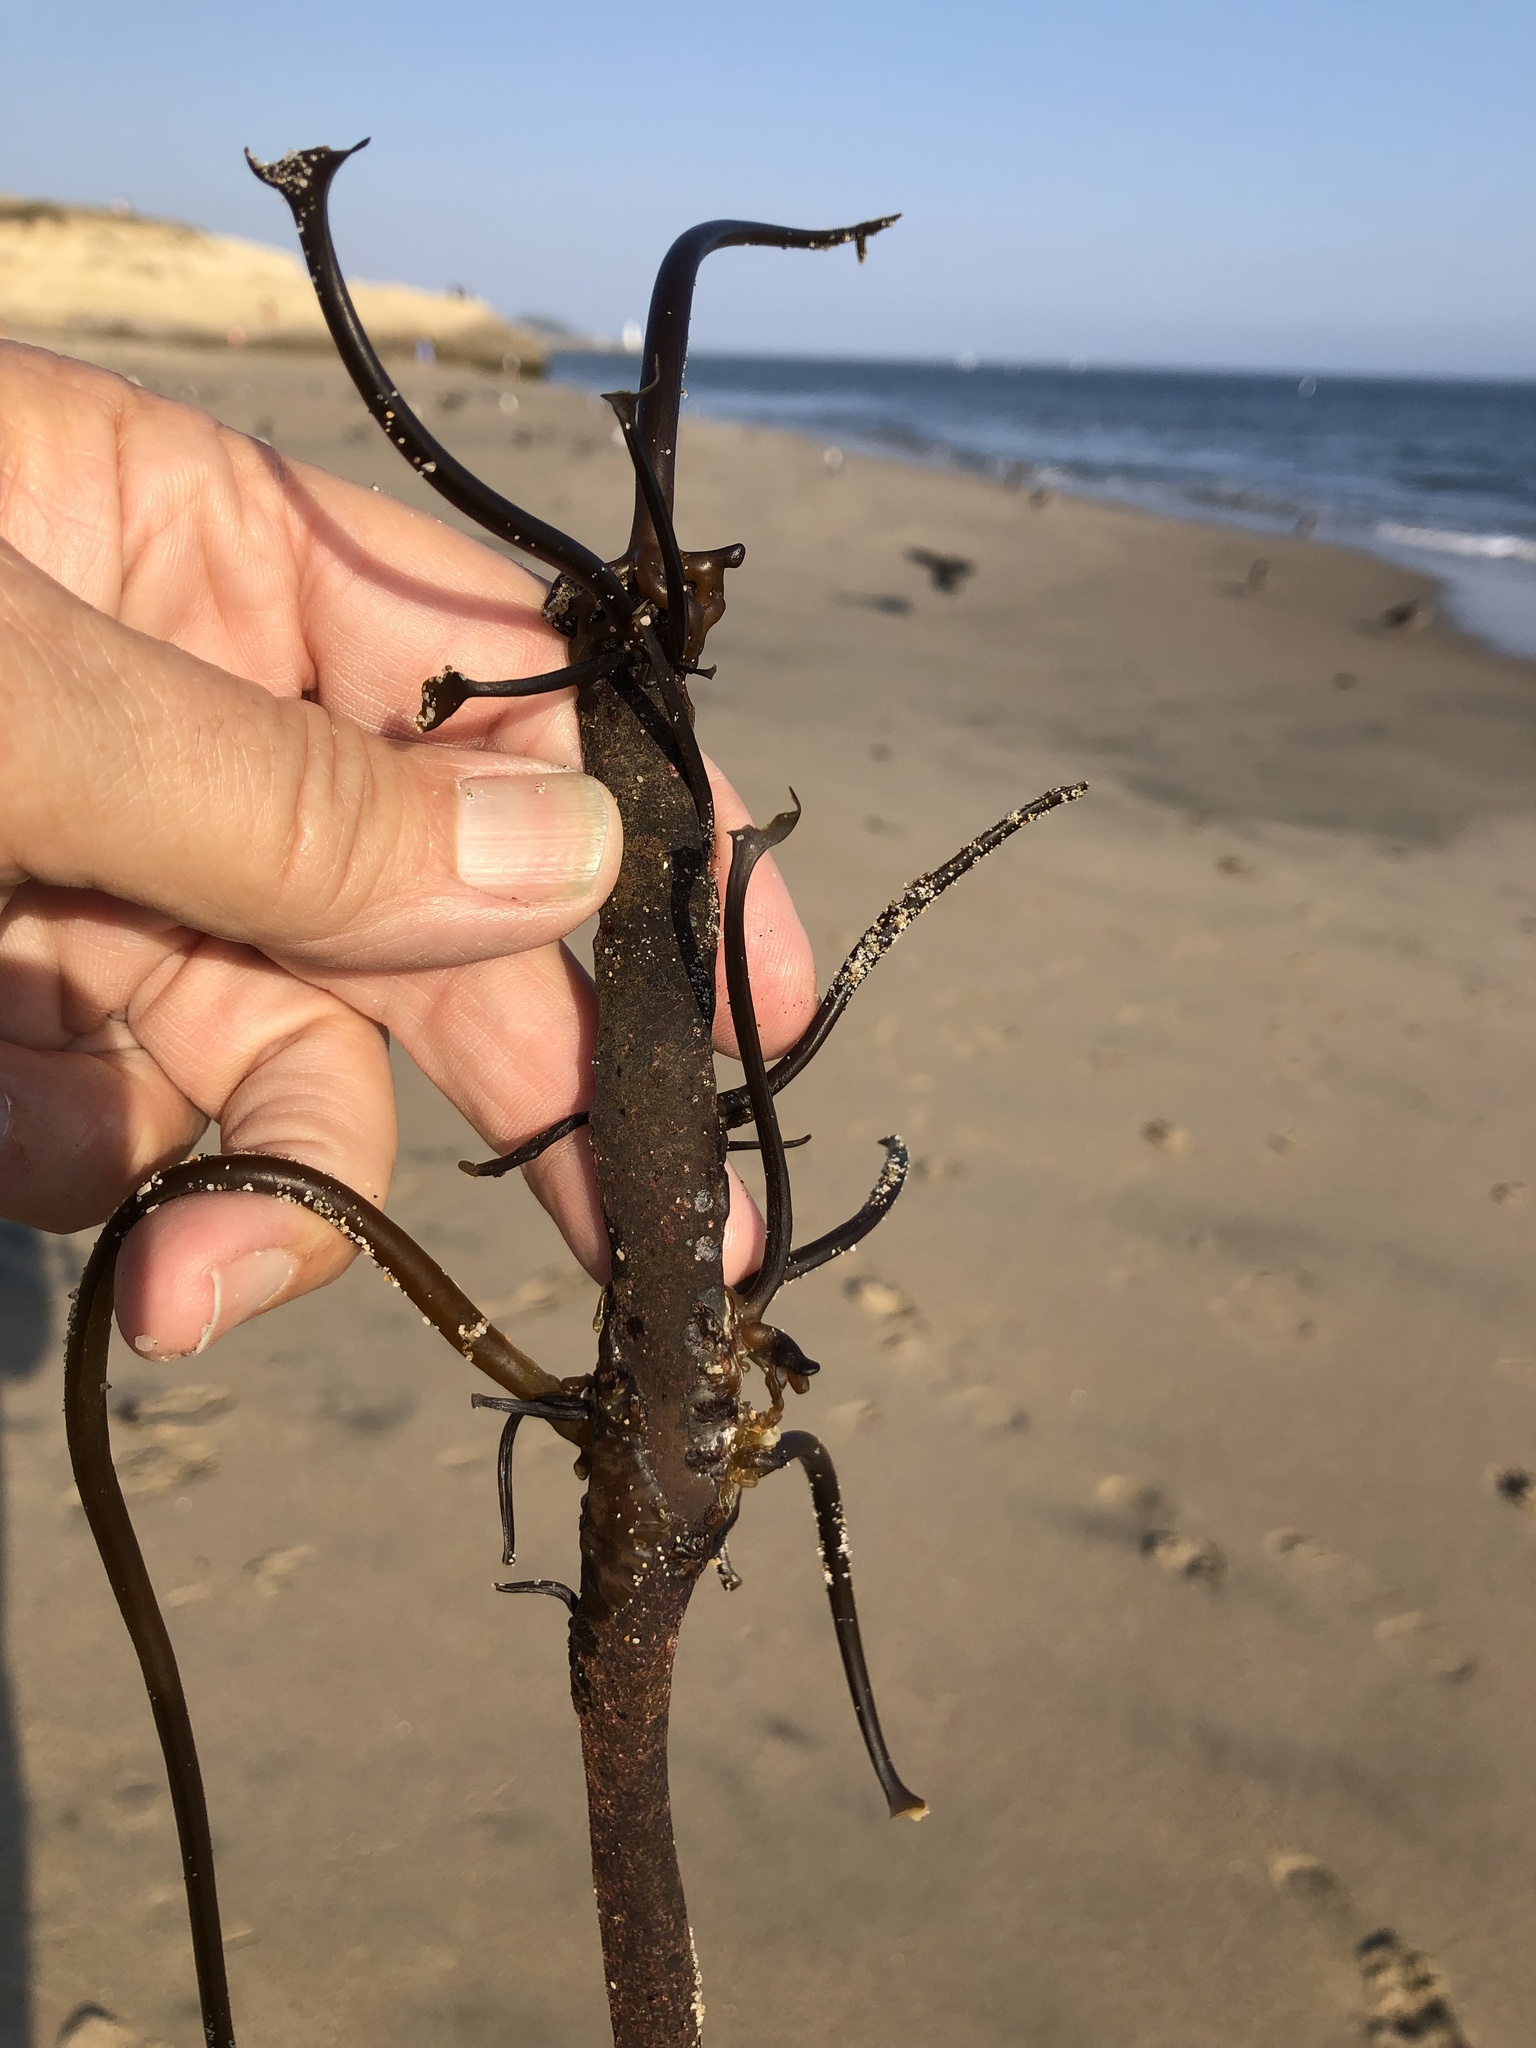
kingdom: Chromista
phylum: Ochrophyta
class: Phaeophyceae
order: Laminariales
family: Alariaceae
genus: Pterygophora
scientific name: Pterygophora californica
